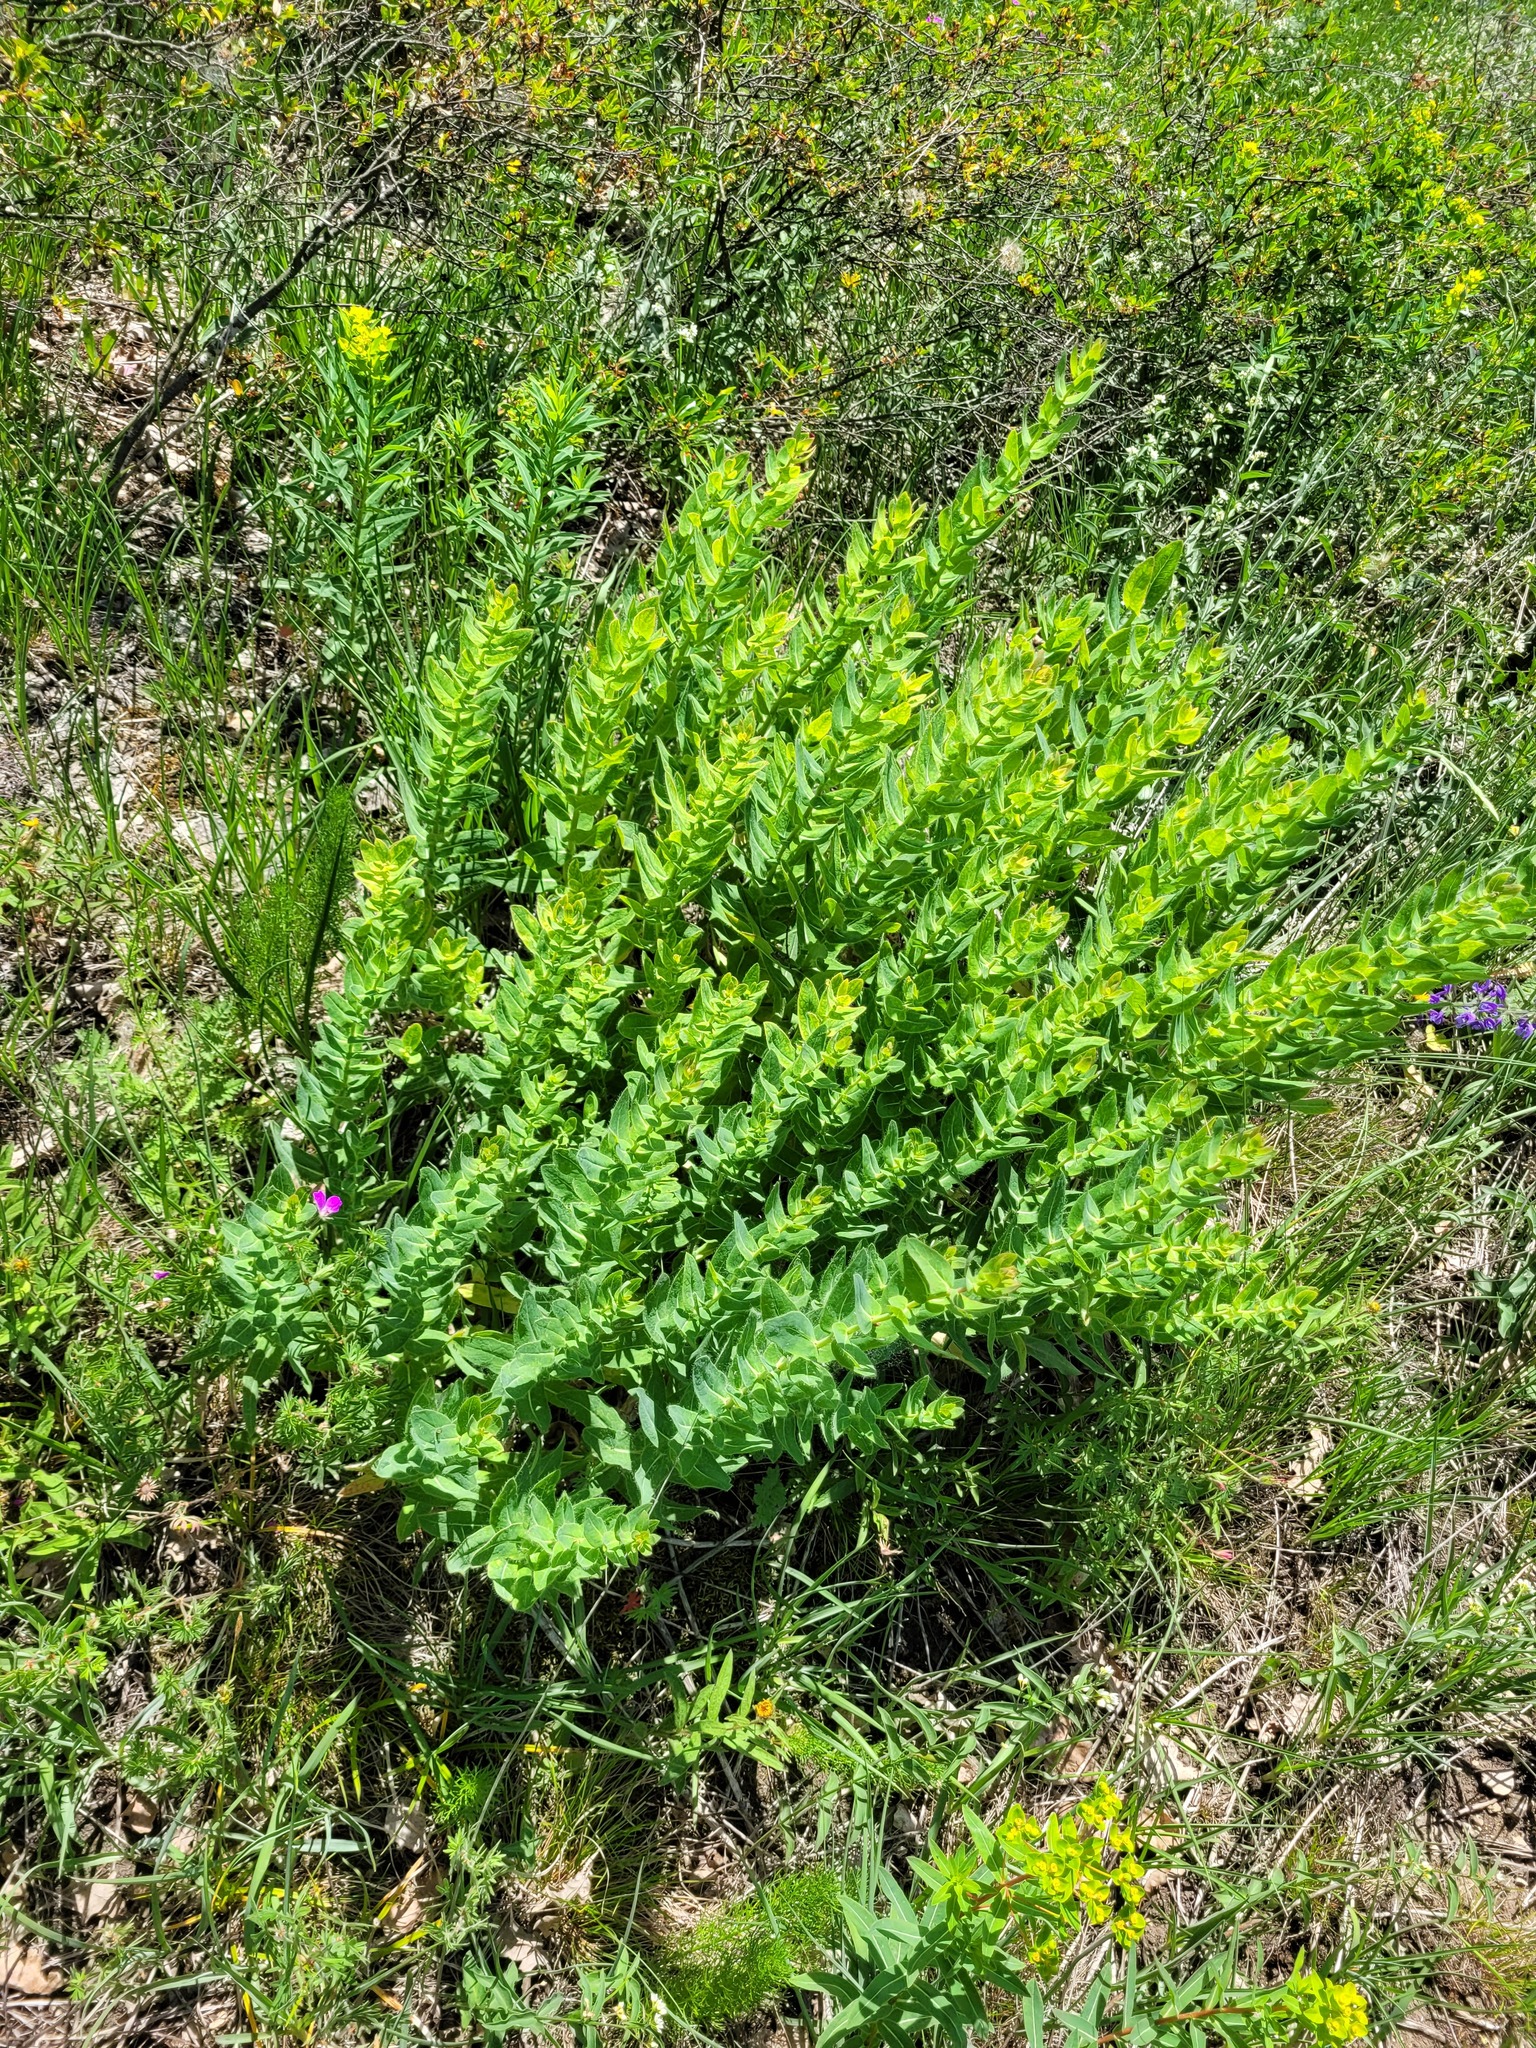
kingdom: Plantae
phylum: Tracheophyta
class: Magnoliopsida
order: Asterales
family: Asteraceae
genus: Hieracium
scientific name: Hieracium virosum
